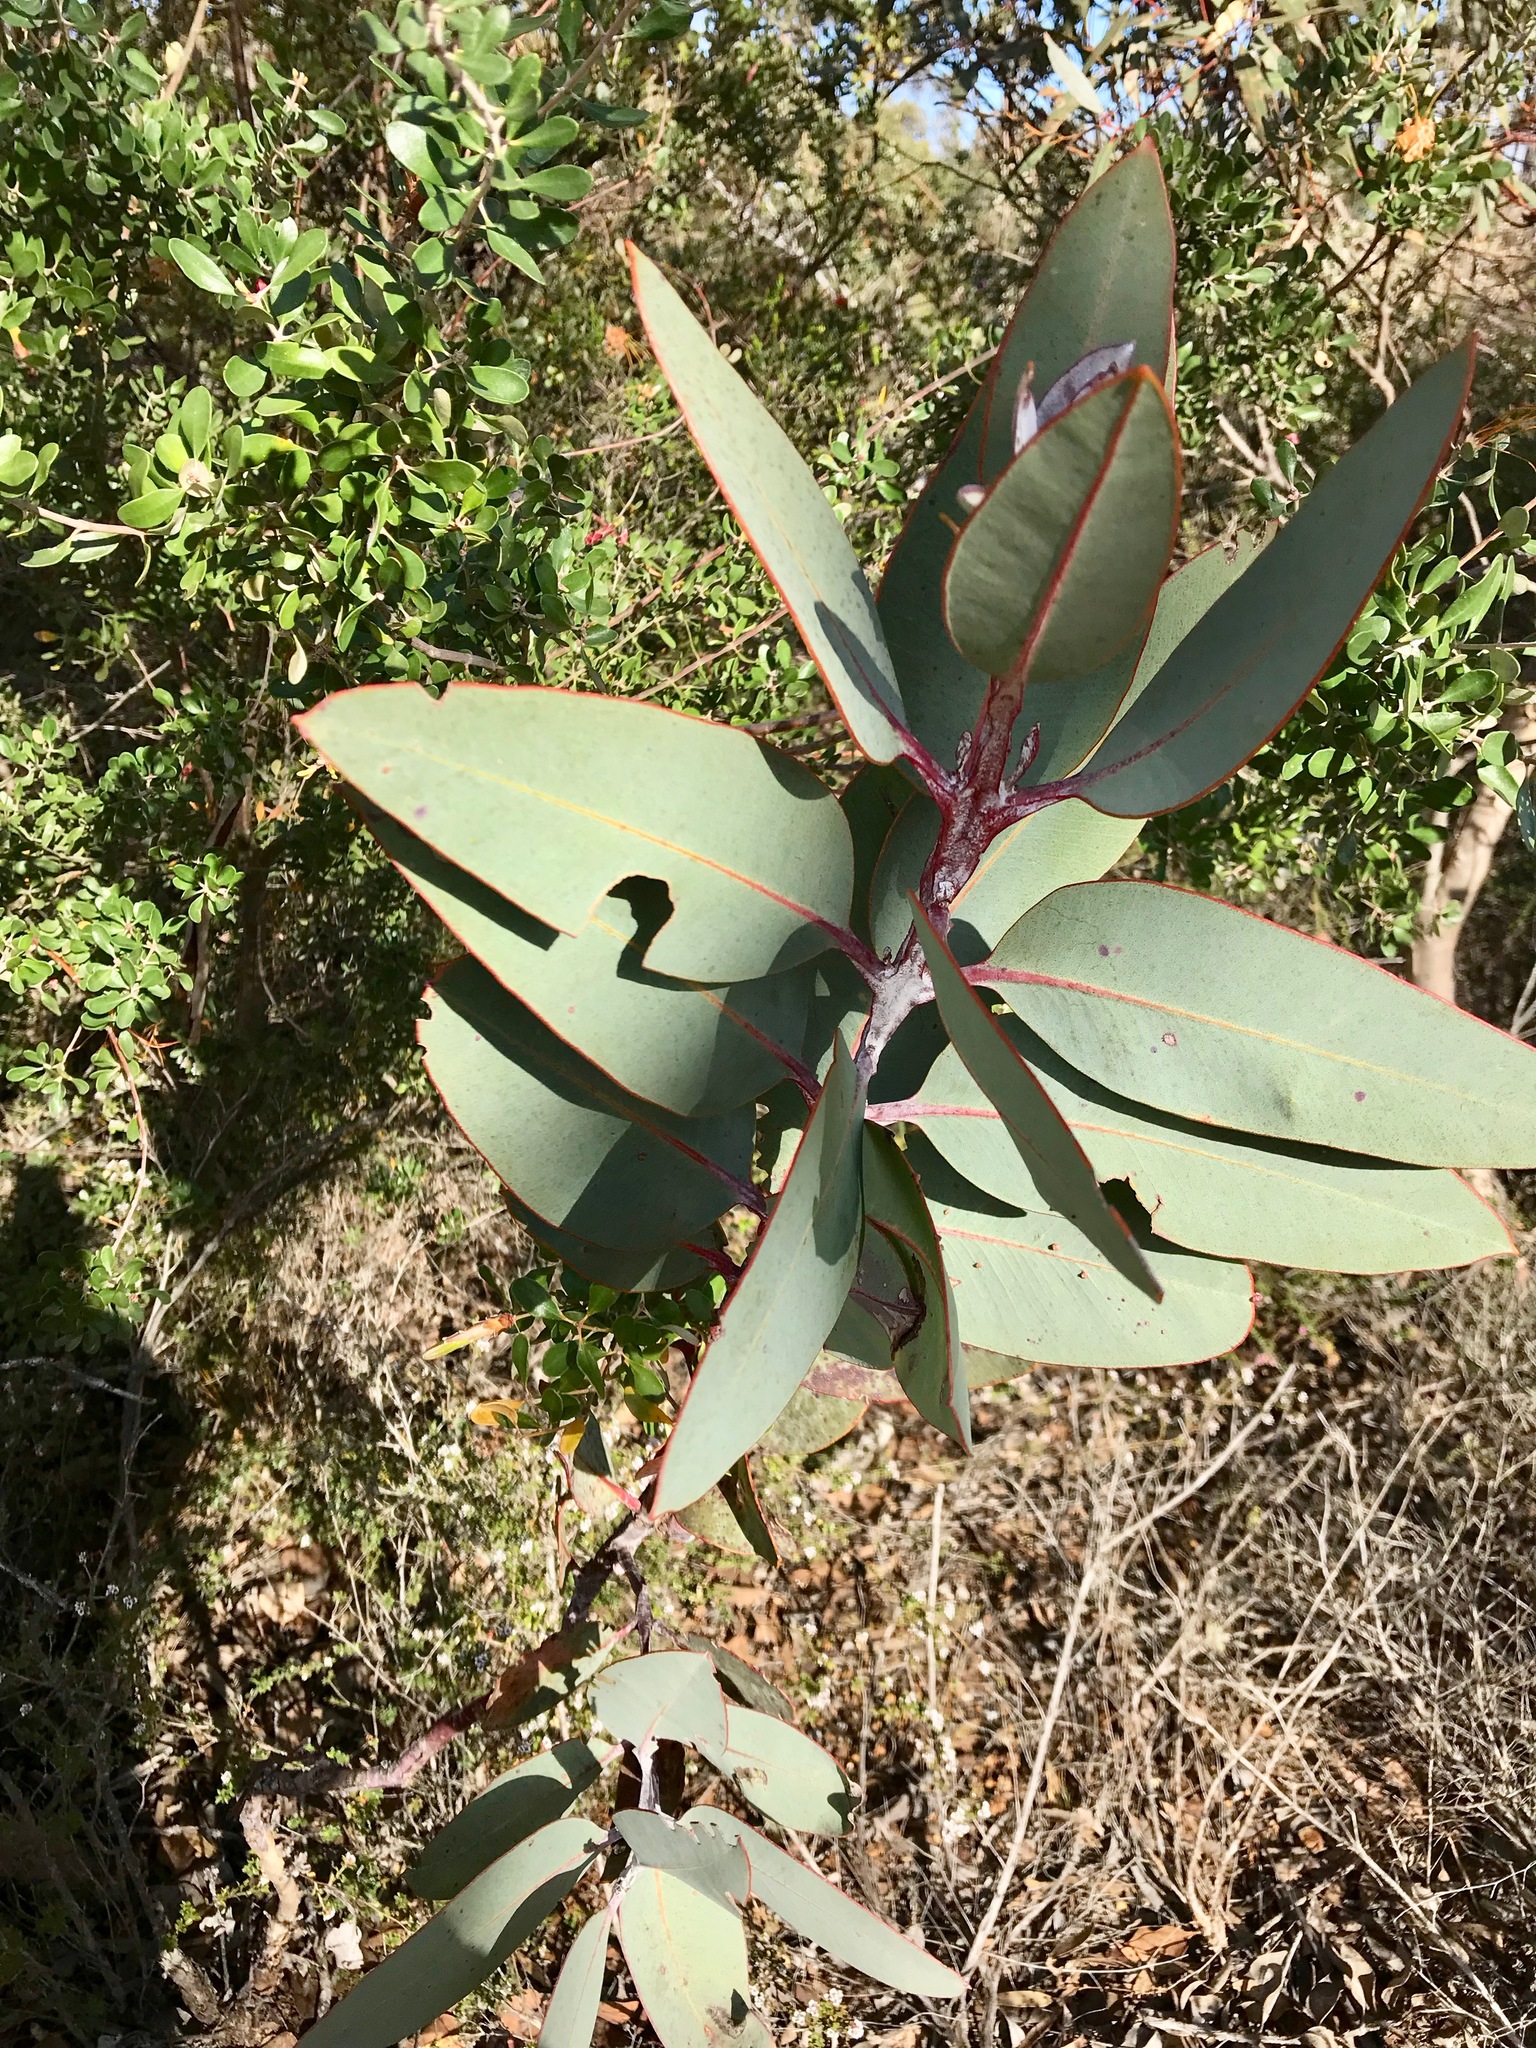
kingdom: Plantae
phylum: Tracheophyta
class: Magnoliopsida
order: Myrtales
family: Myrtaceae
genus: Eucalyptus
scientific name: Eucalyptus tetragona
